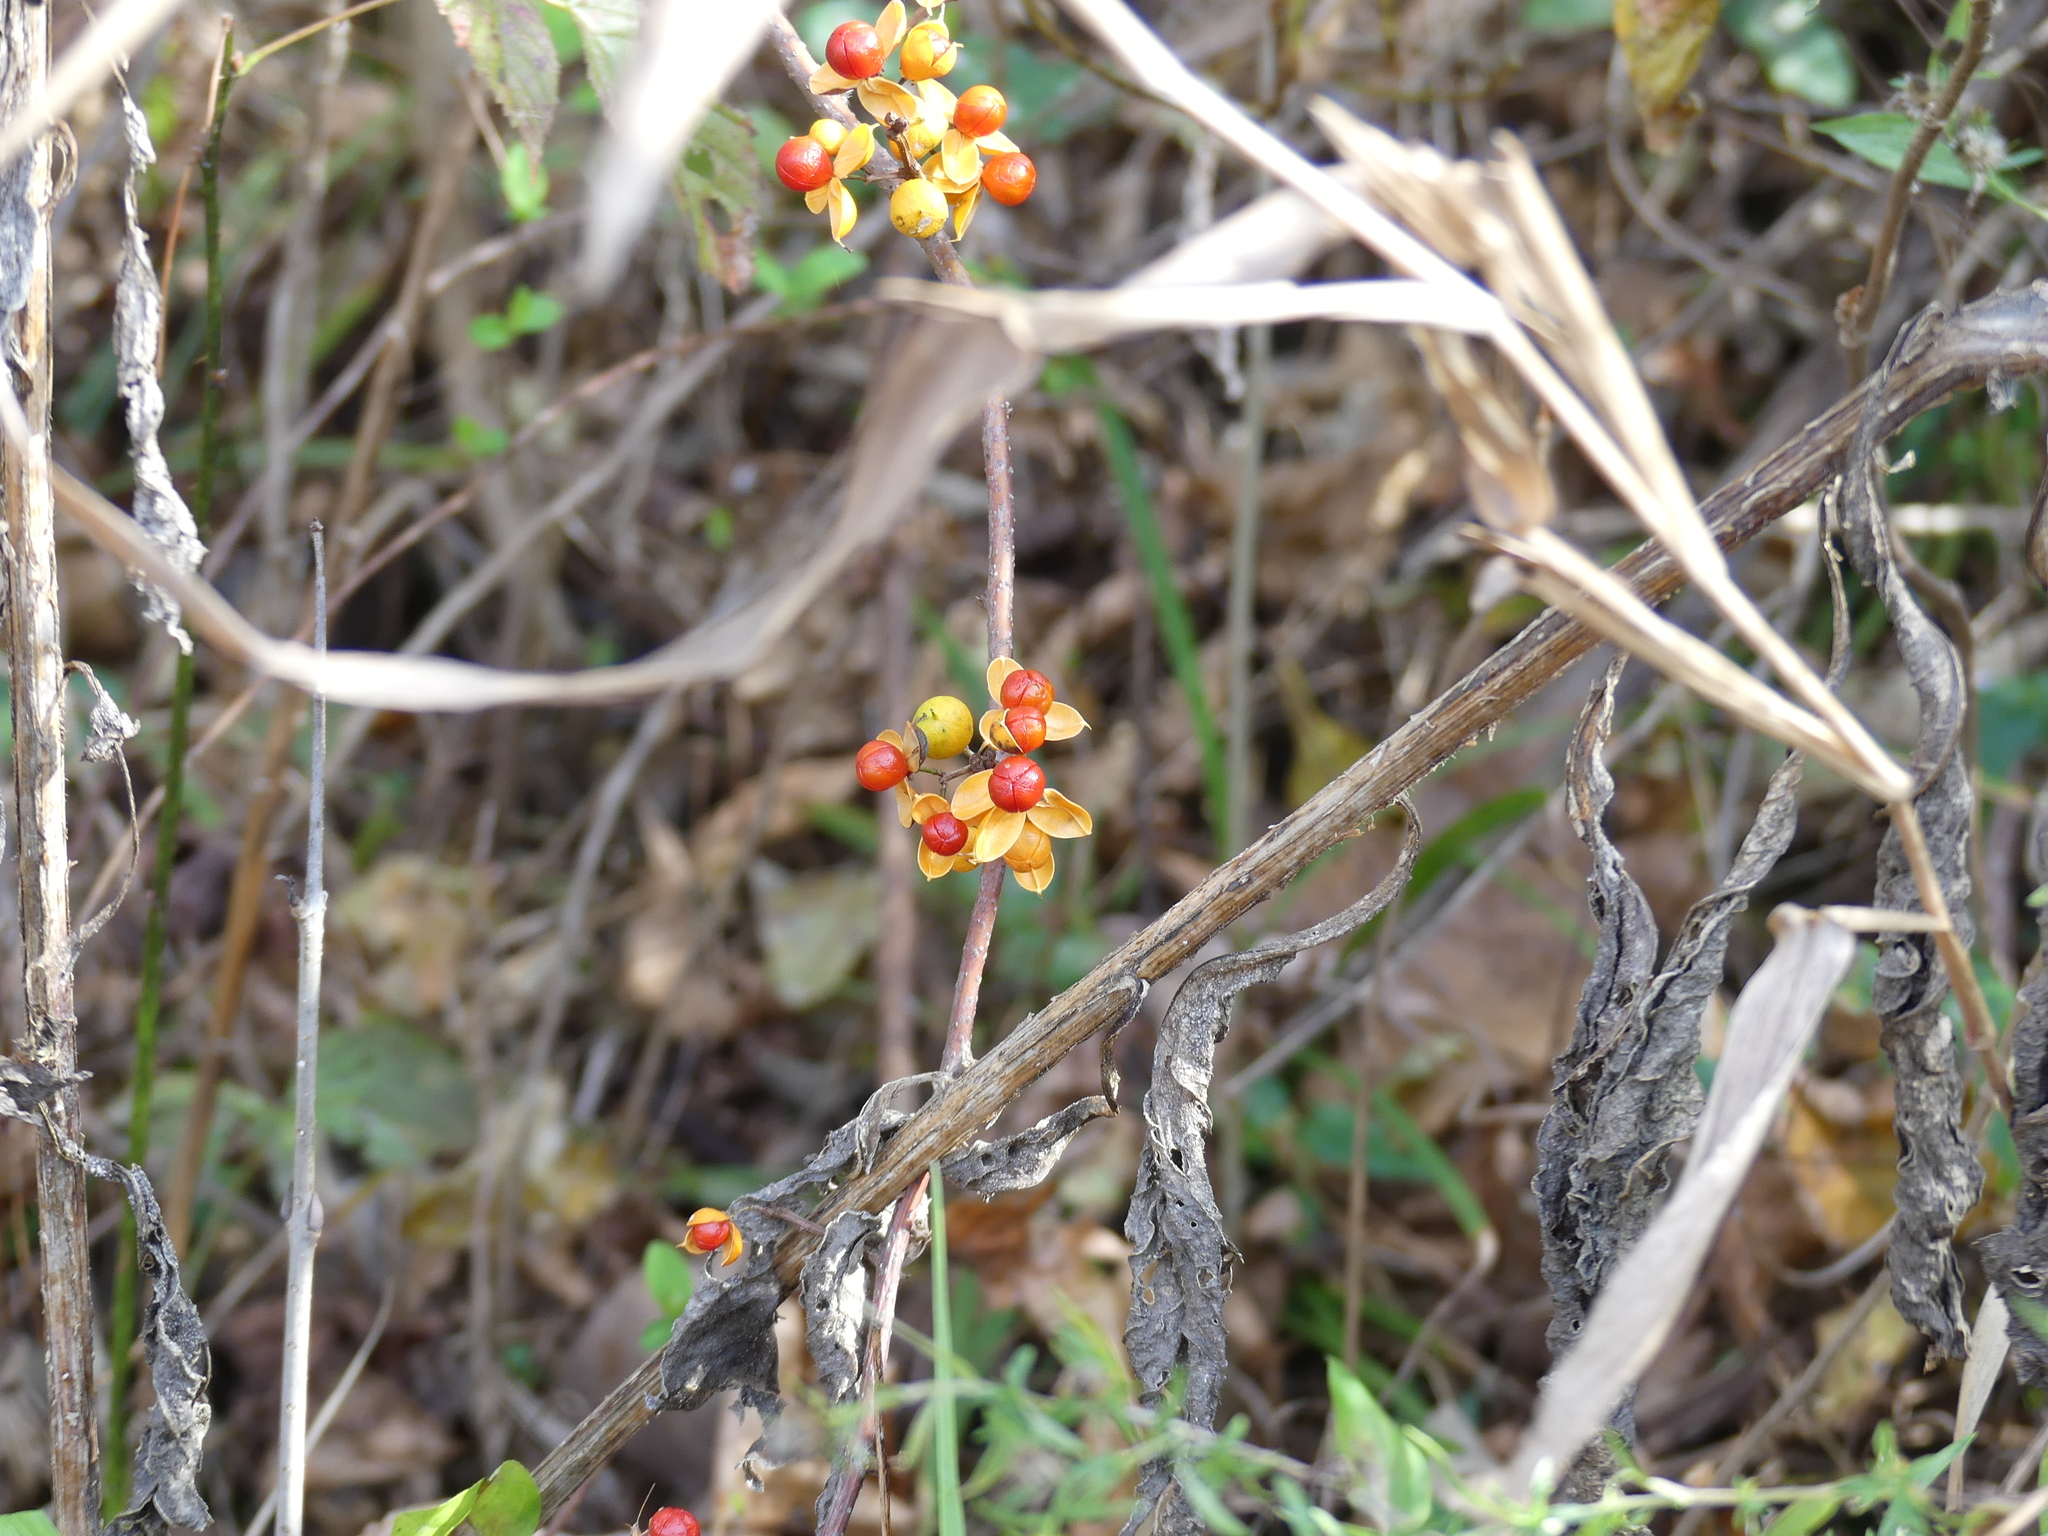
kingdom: Plantae
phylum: Tracheophyta
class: Magnoliopsida
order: Celastrales
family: Celastraceae
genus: Celastrus
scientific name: Celastrus orbiculatus
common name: Oriental bittersweet
